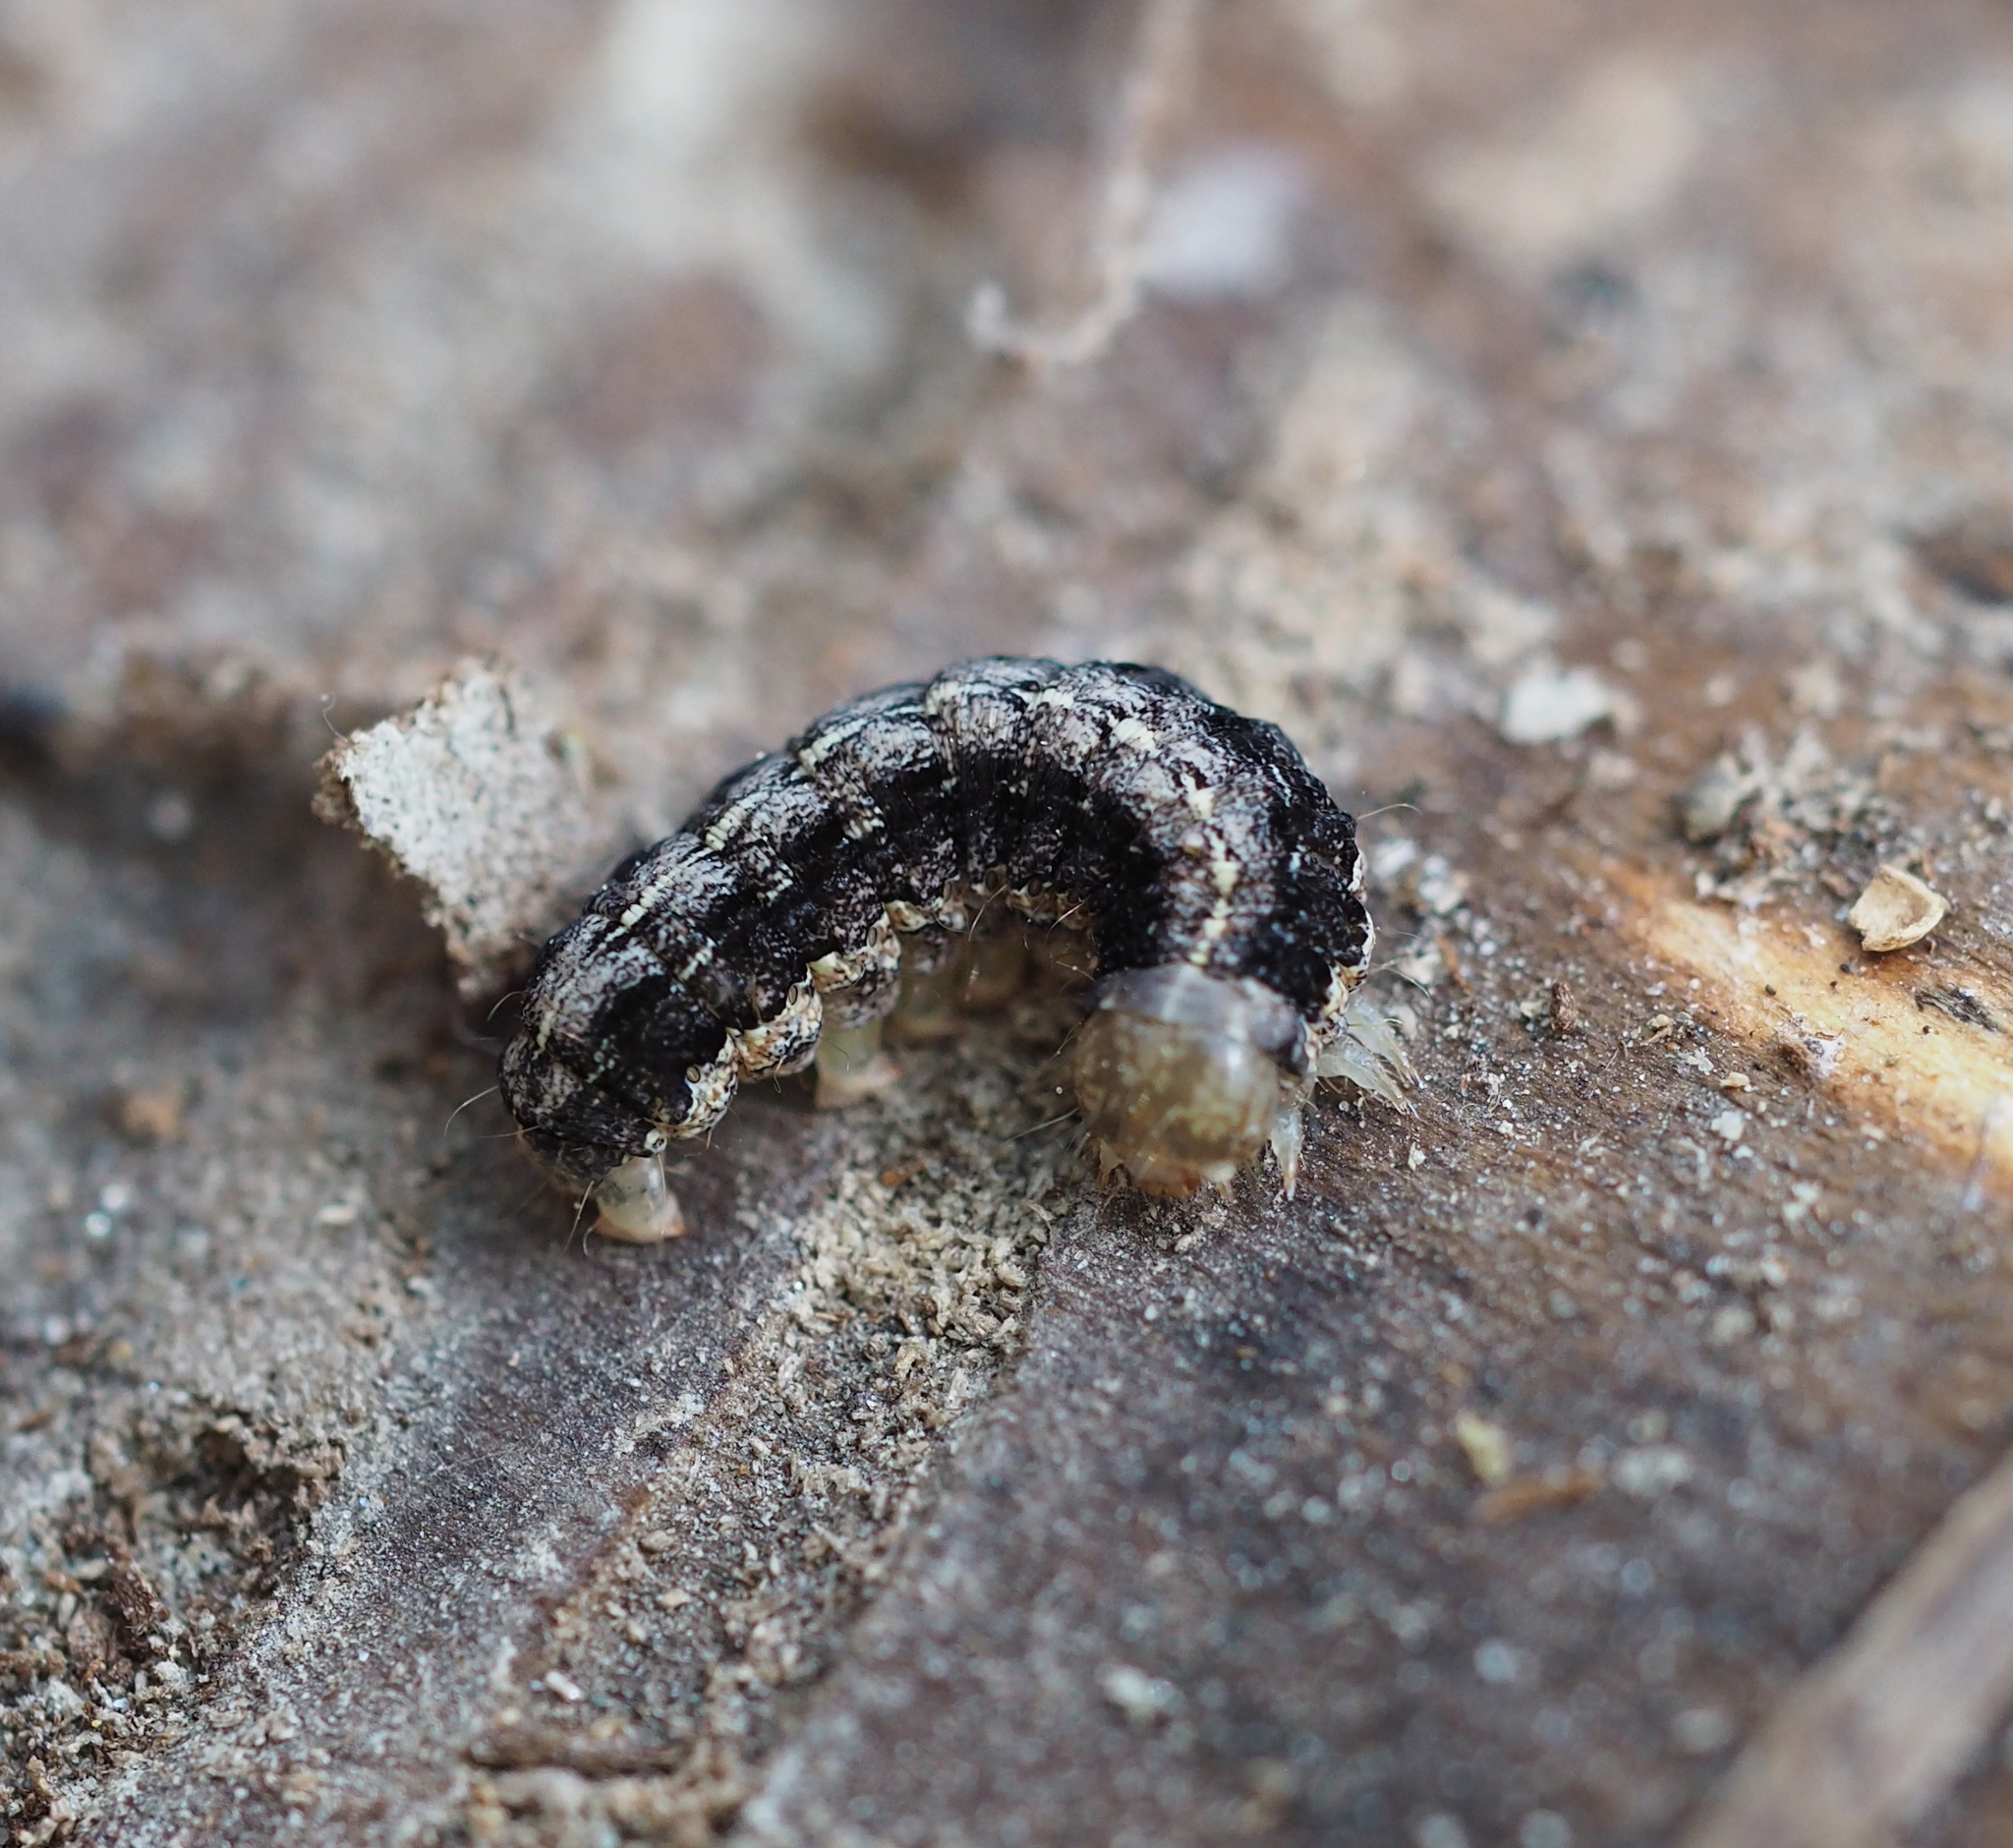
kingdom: Animalia
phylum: Arthropoda
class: Insecta
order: Lepidoptera
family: Noctuidae
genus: Apterogenum
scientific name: Apterogenum ypsillon
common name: Dingy shears
